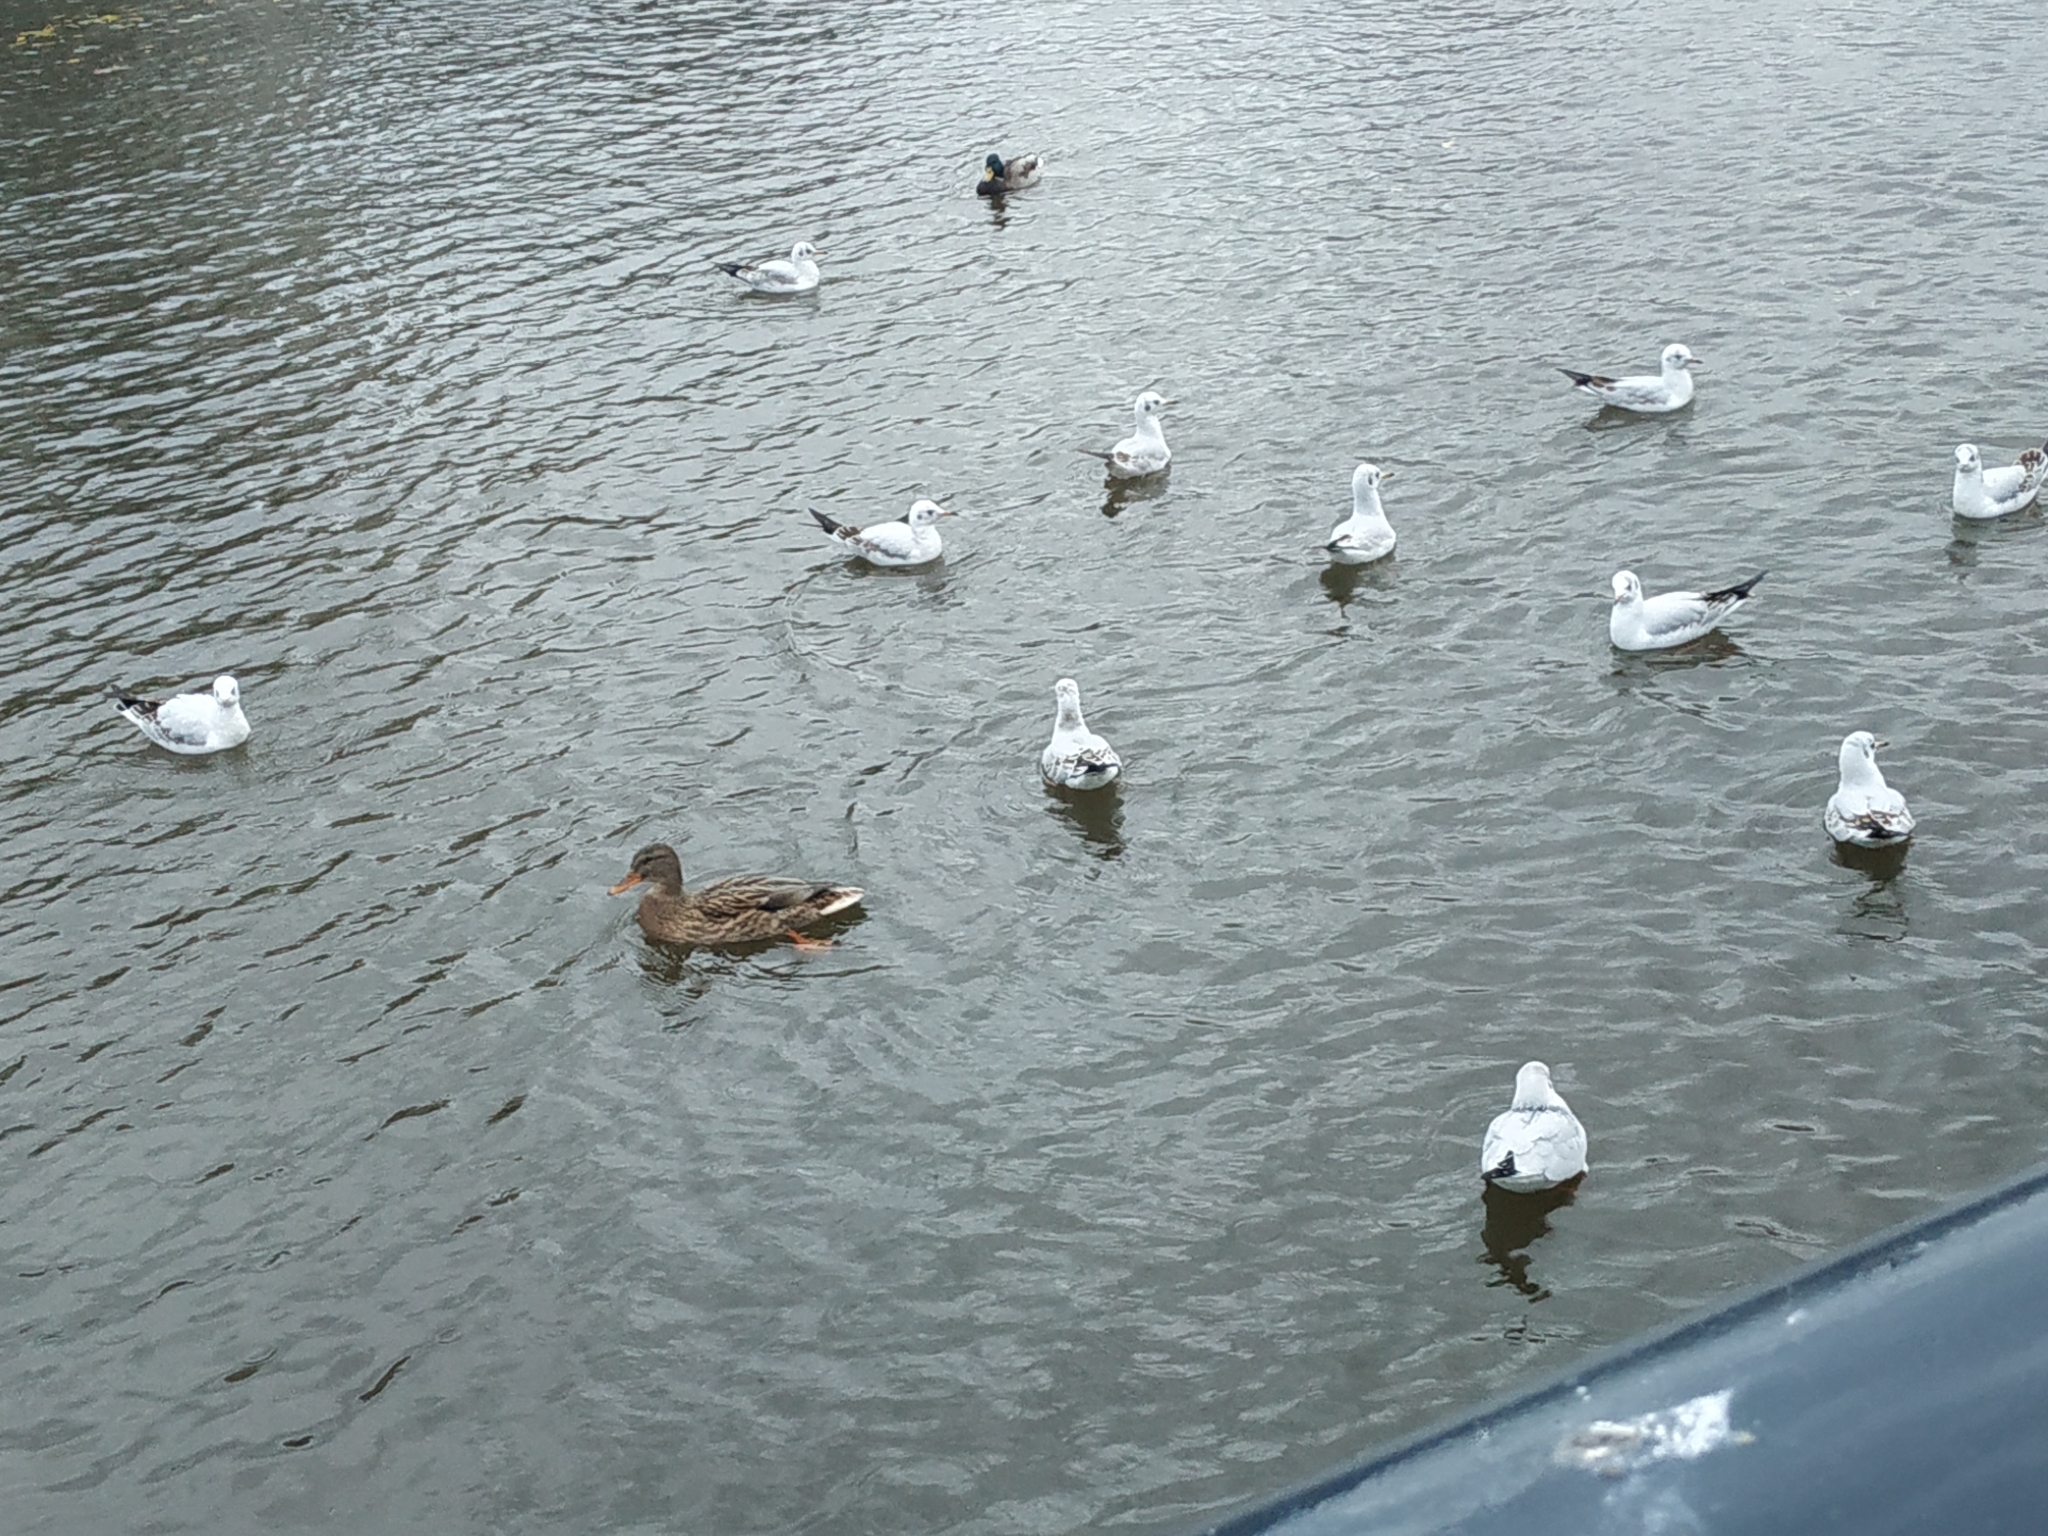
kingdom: Animalia
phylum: Chordata
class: Aves
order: Anseriformes
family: Anatidae
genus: Anas
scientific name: Anas platyrhynchos
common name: Mallard
